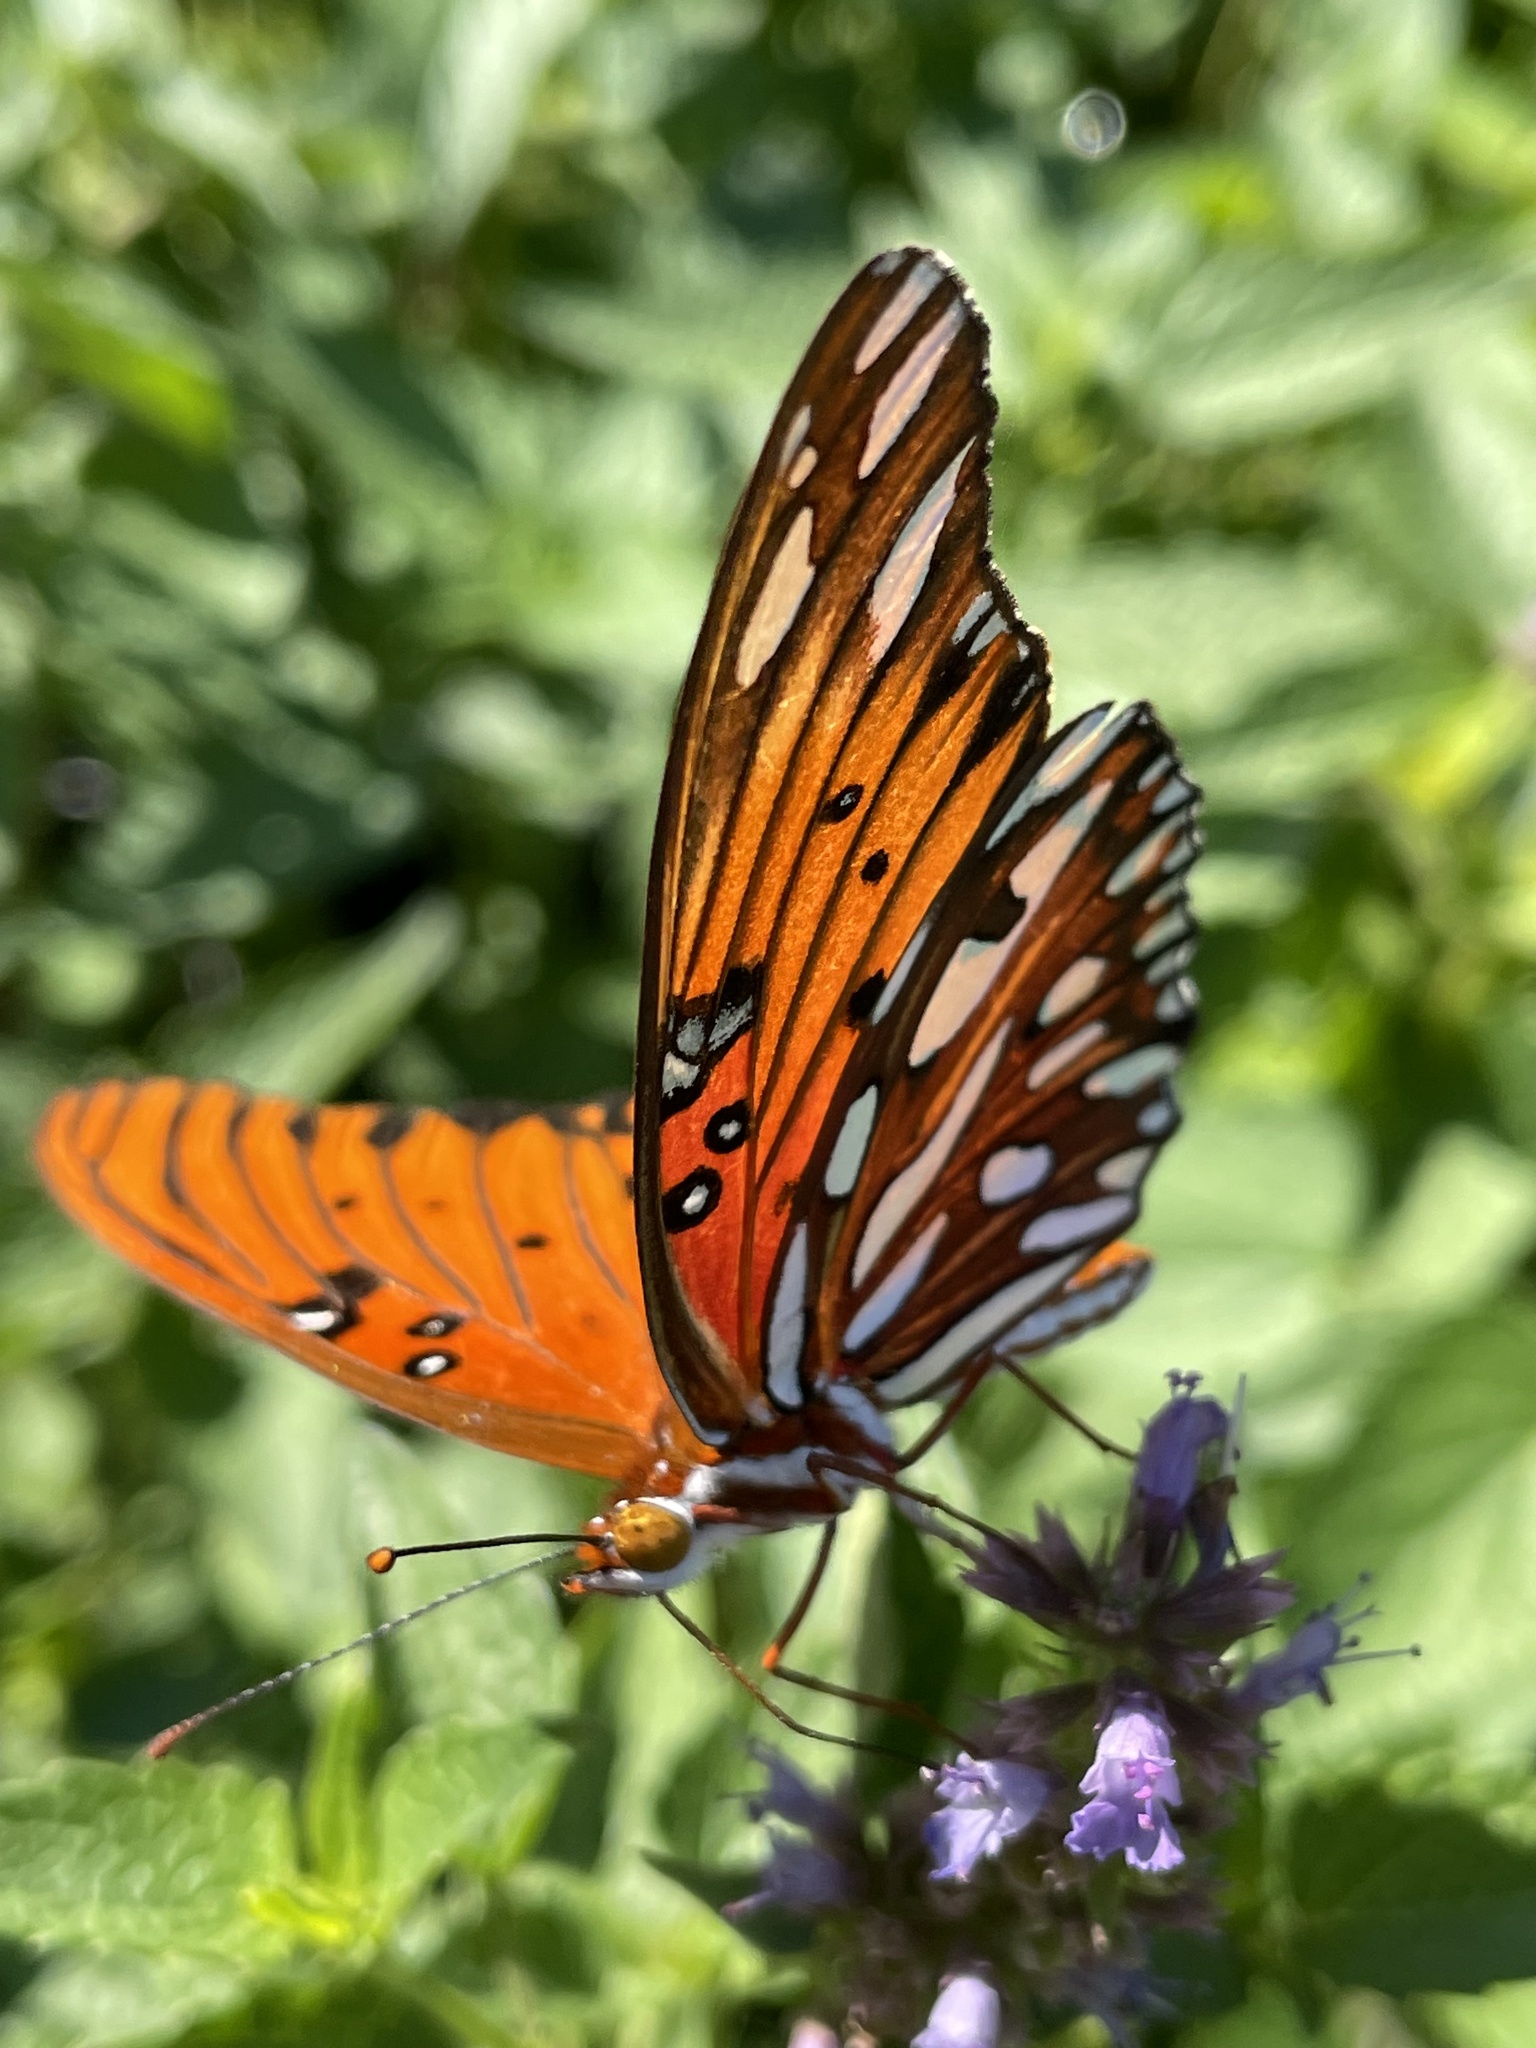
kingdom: Animalia
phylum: Arthropoda
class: Insecta
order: Lepidoptera
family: Nymphalidae
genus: Dione
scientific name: Dione vanillae
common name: Gulf fritillary
